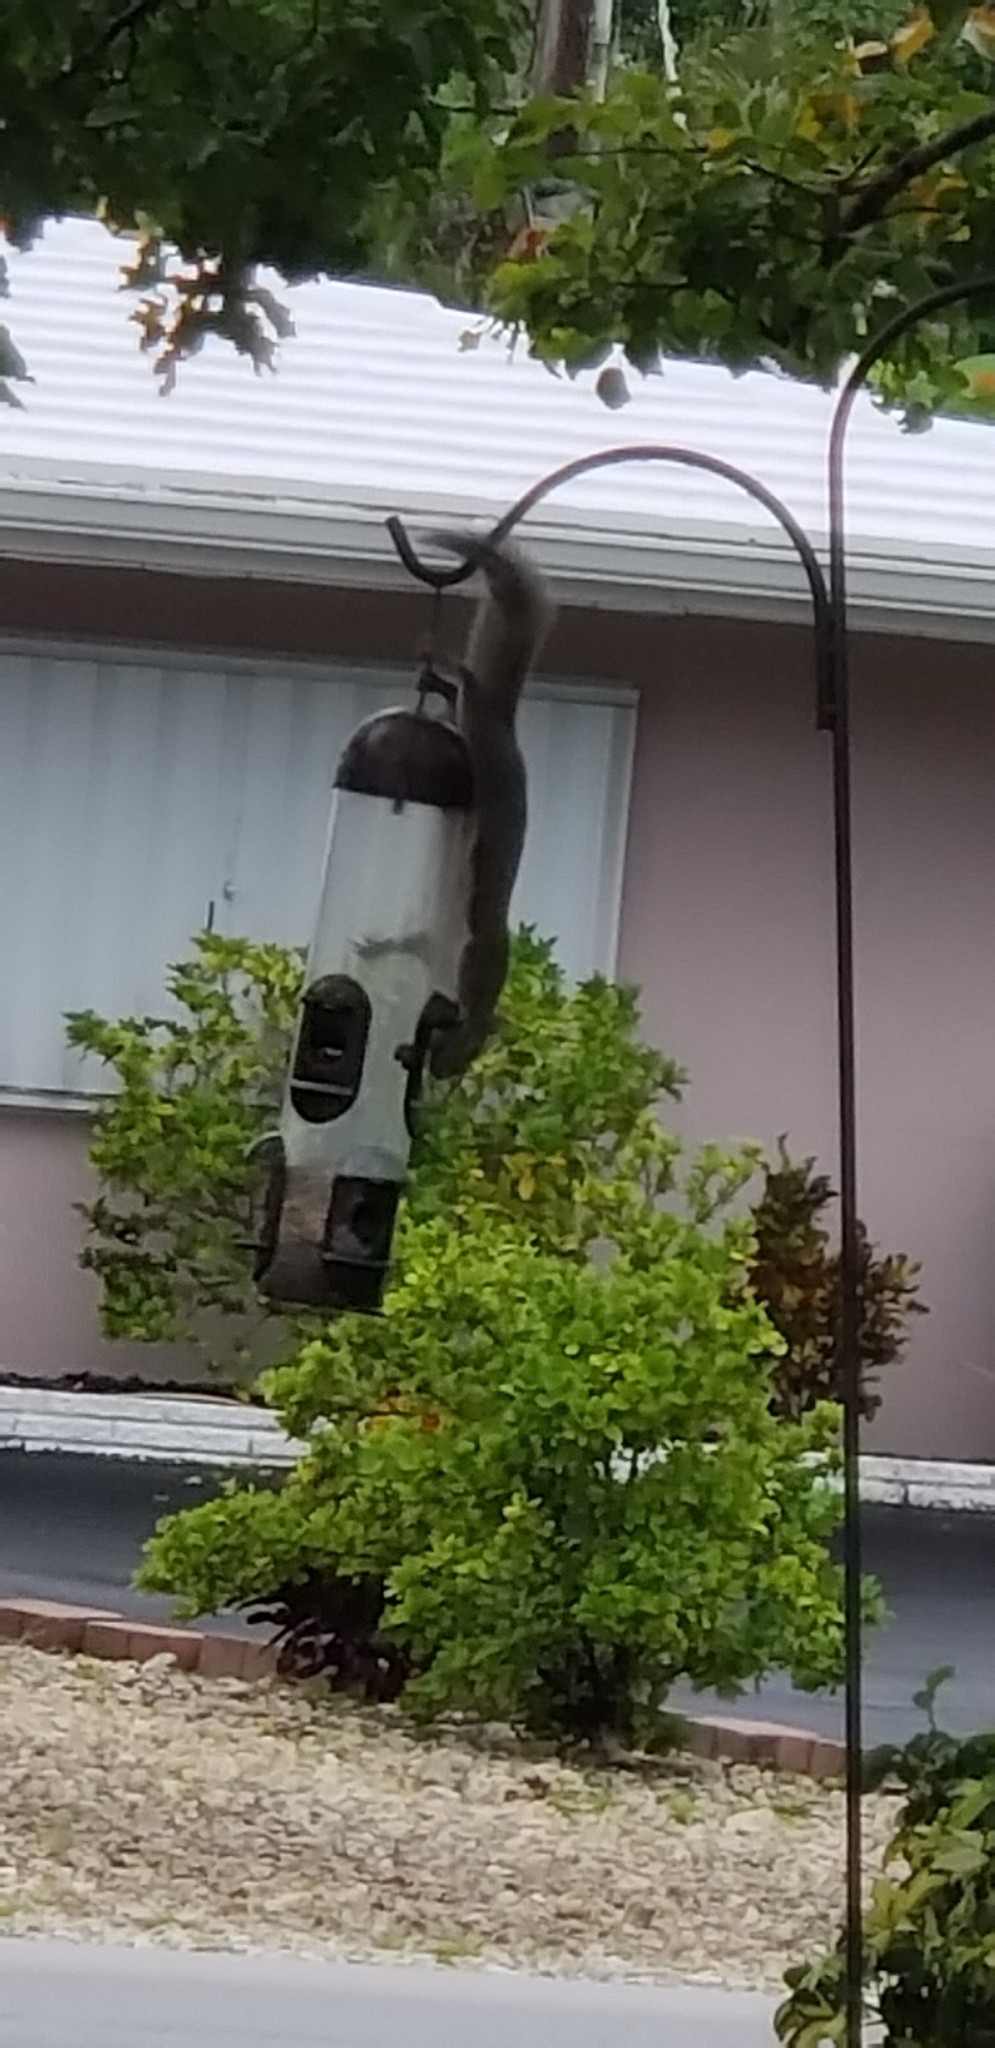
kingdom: Animalia
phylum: Chordata
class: Mammalia
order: Rodentia
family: Sciuridae
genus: Sciurus
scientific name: Sciurus carolinensis
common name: Eastern gray squirrel
